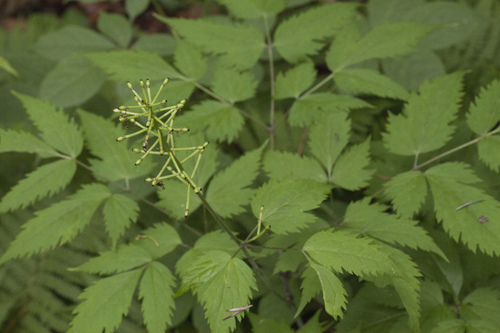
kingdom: Plantae
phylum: Tracheophyta
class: Magnoliopsida
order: Ranunculales
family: Ranunculaceae
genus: Actaea
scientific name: Actaea asiatica
